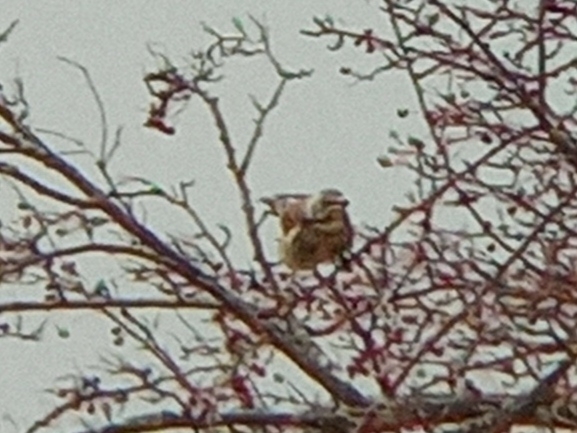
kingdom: Animalia
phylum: Chordata
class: Aves
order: Passeriformes
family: Turdidae
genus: Turdus
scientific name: Turdus pilaris
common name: Fieldfare
